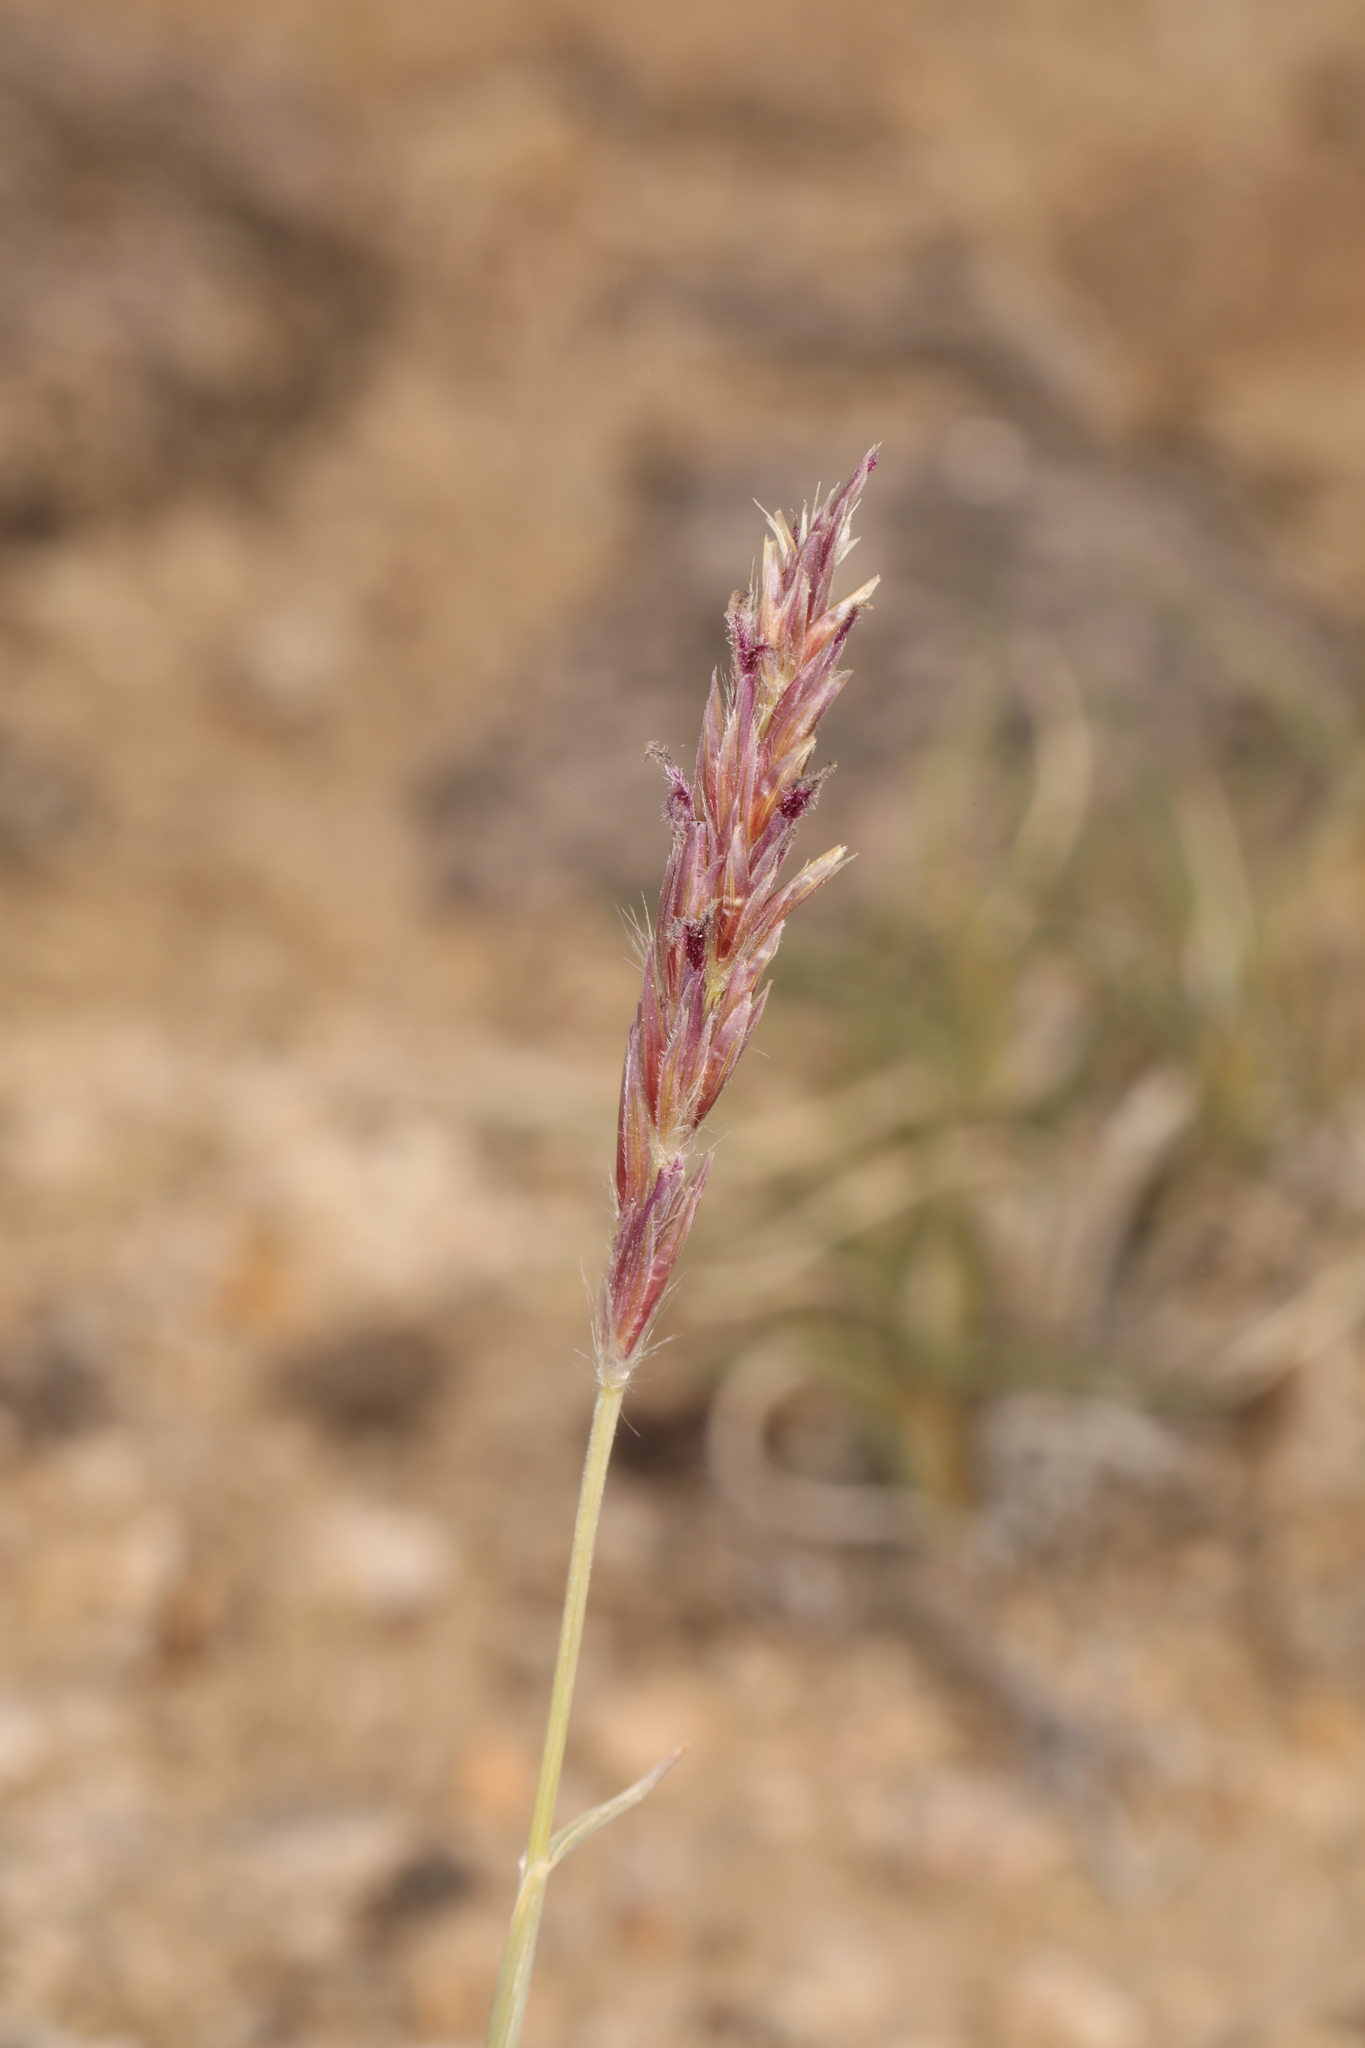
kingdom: Plantae
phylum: Tracheophyta
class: Liliopsida
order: Poales
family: Poaceae
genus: Hilaria
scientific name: Hilaria jamesii
